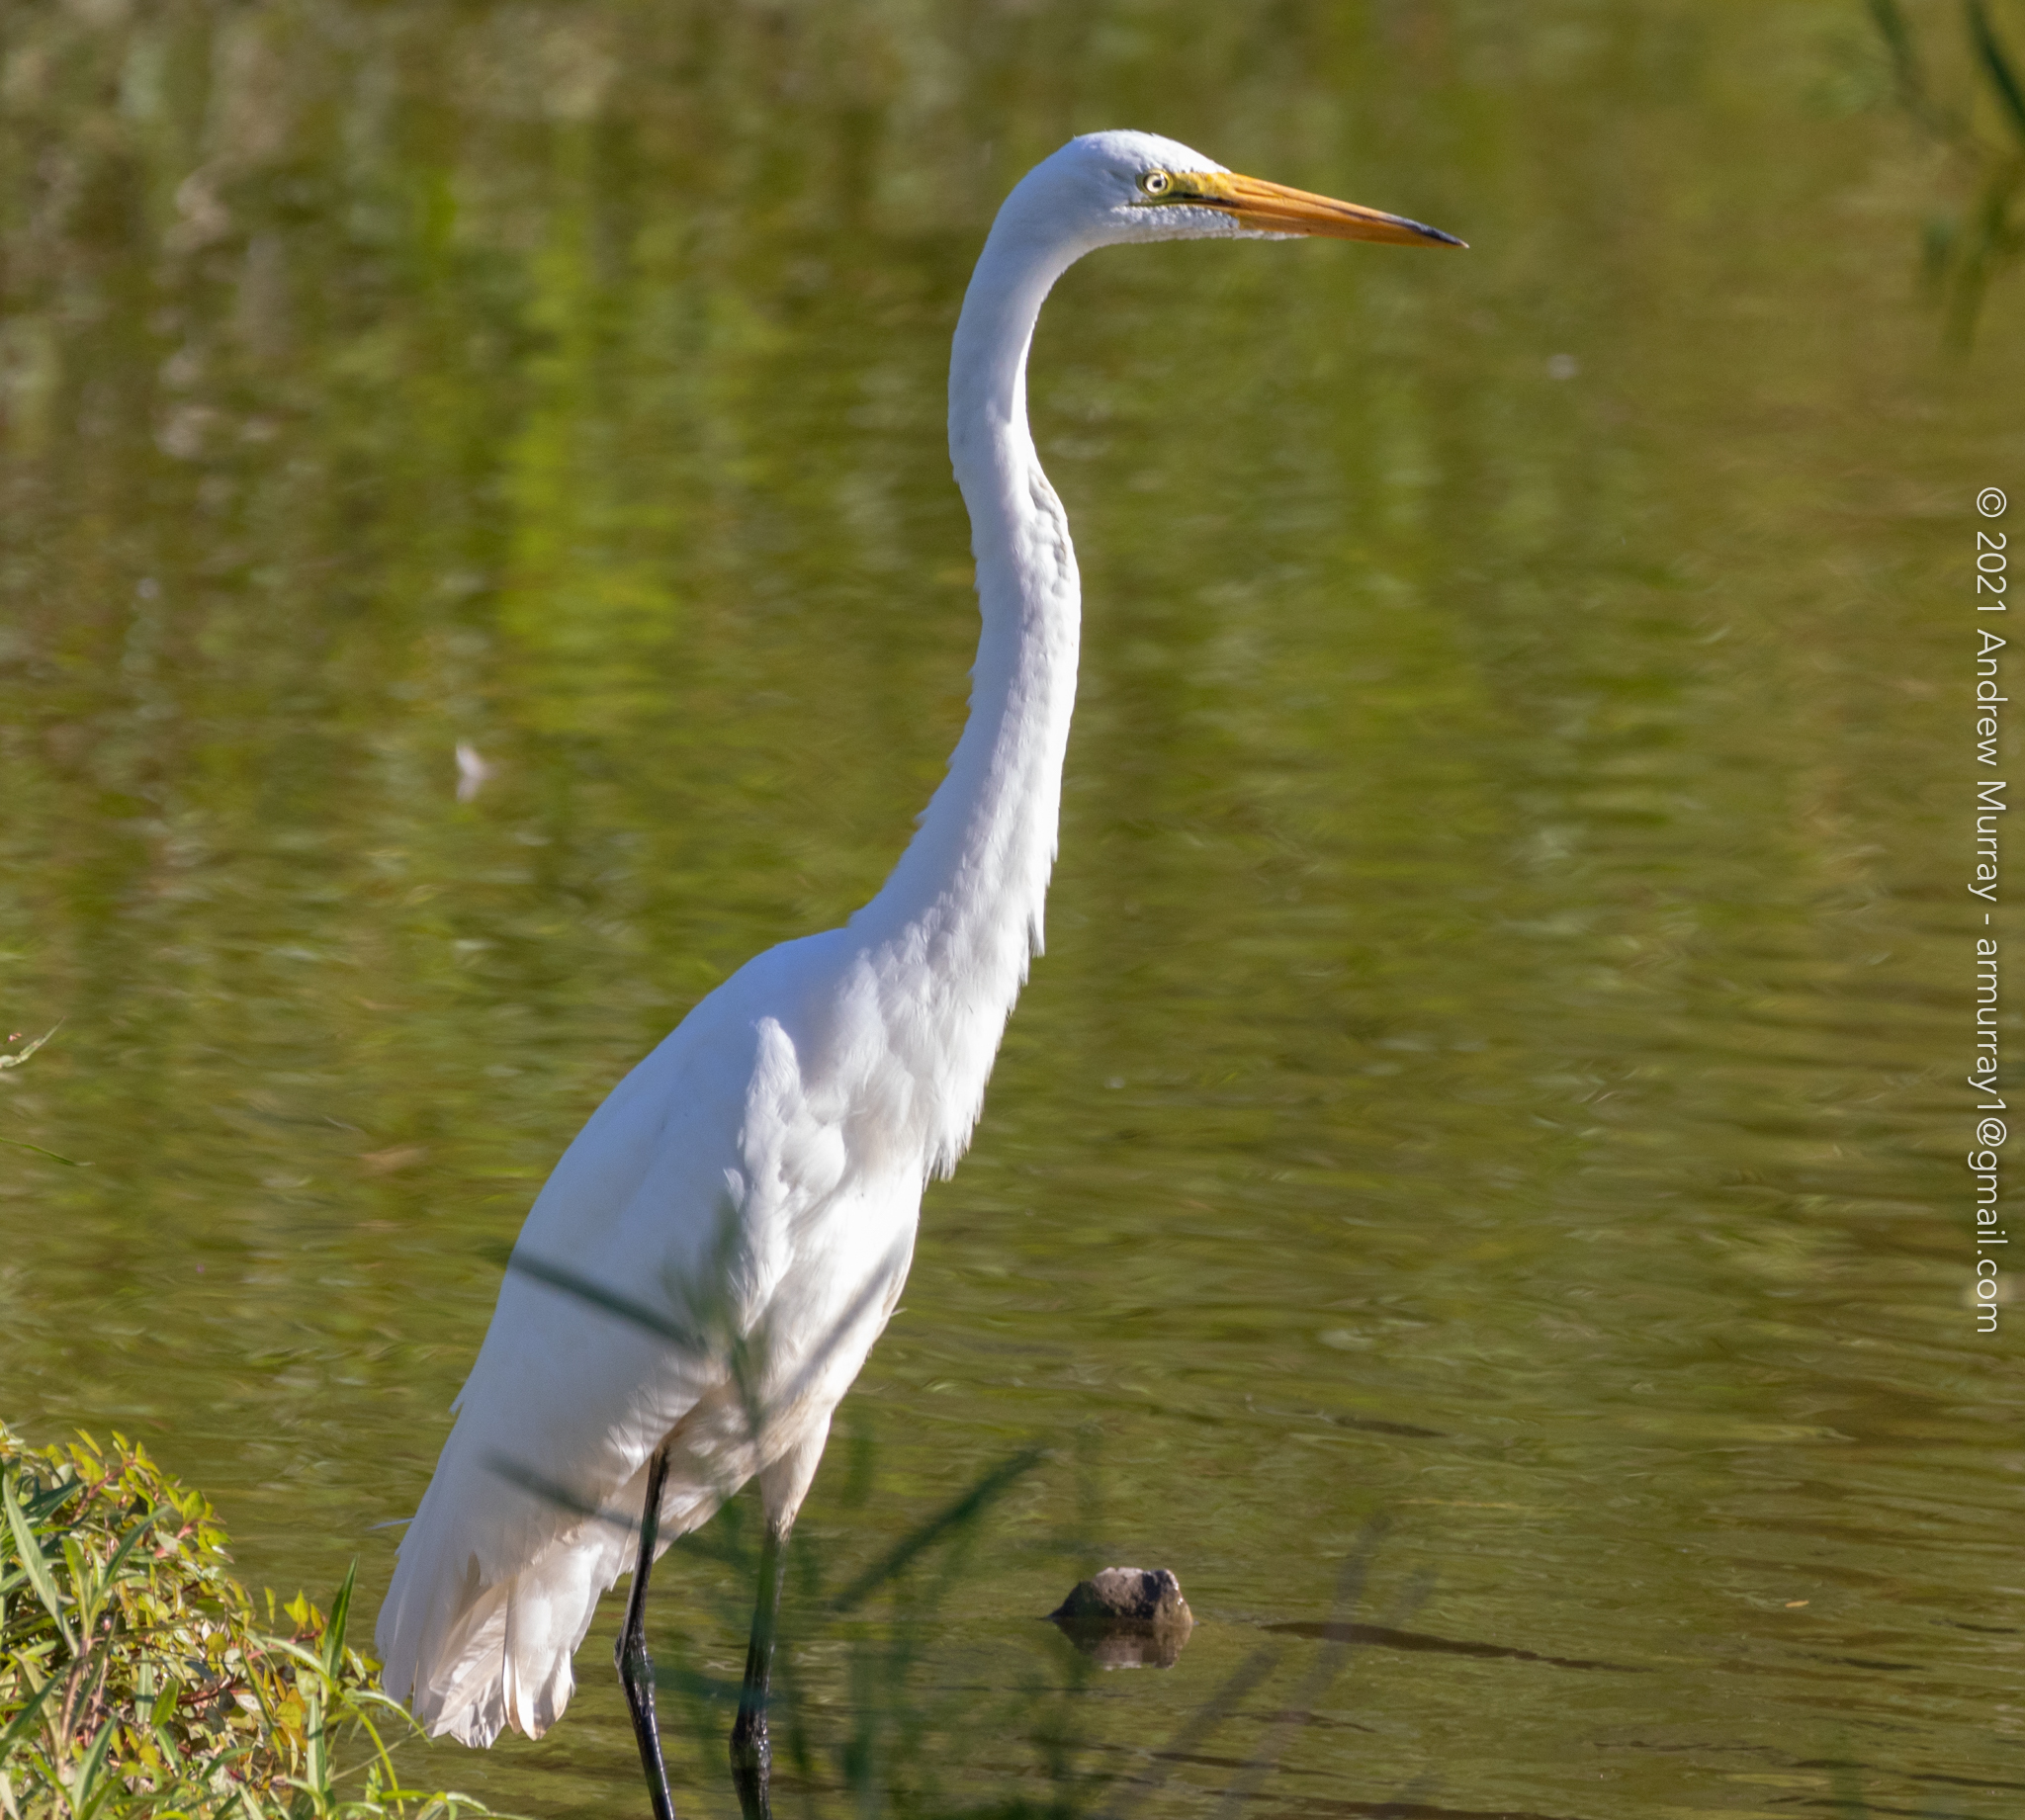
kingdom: Animalia
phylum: Chordata
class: Aves
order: Pelecaniformes
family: Ardeidae
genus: Ardea
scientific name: Ardea alba
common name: Great egret
